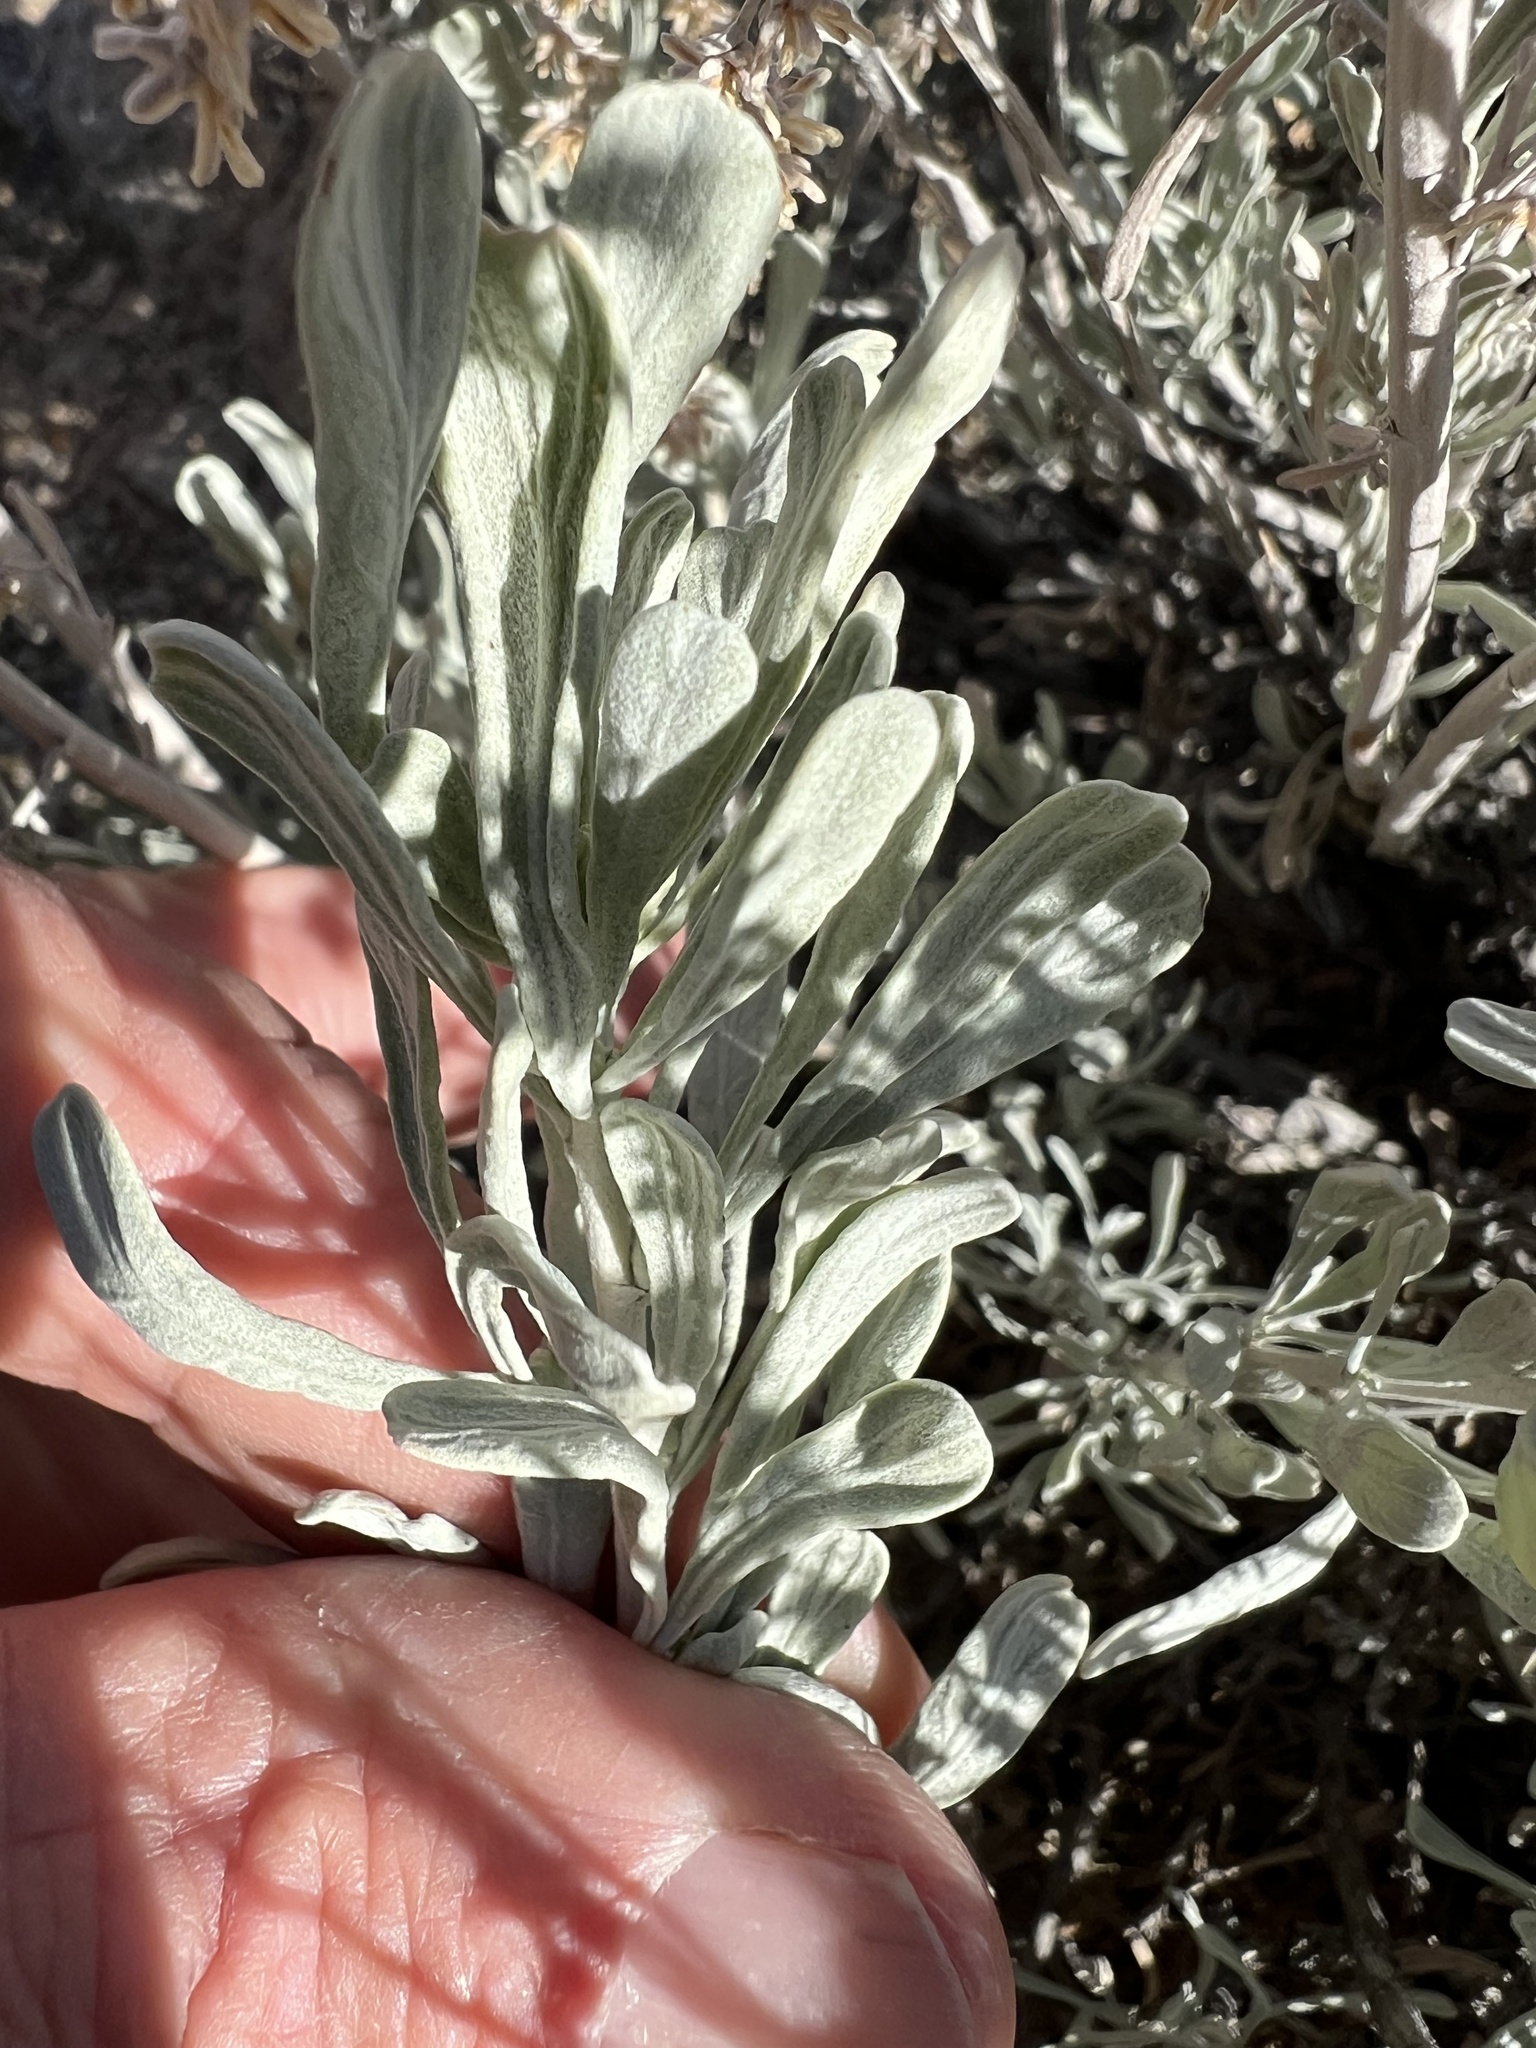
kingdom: Plantae
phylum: Tracheophyta
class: Magnoliopsida
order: Asterales
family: Asteraceae
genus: Artemisia
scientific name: Artemisia tridentata
